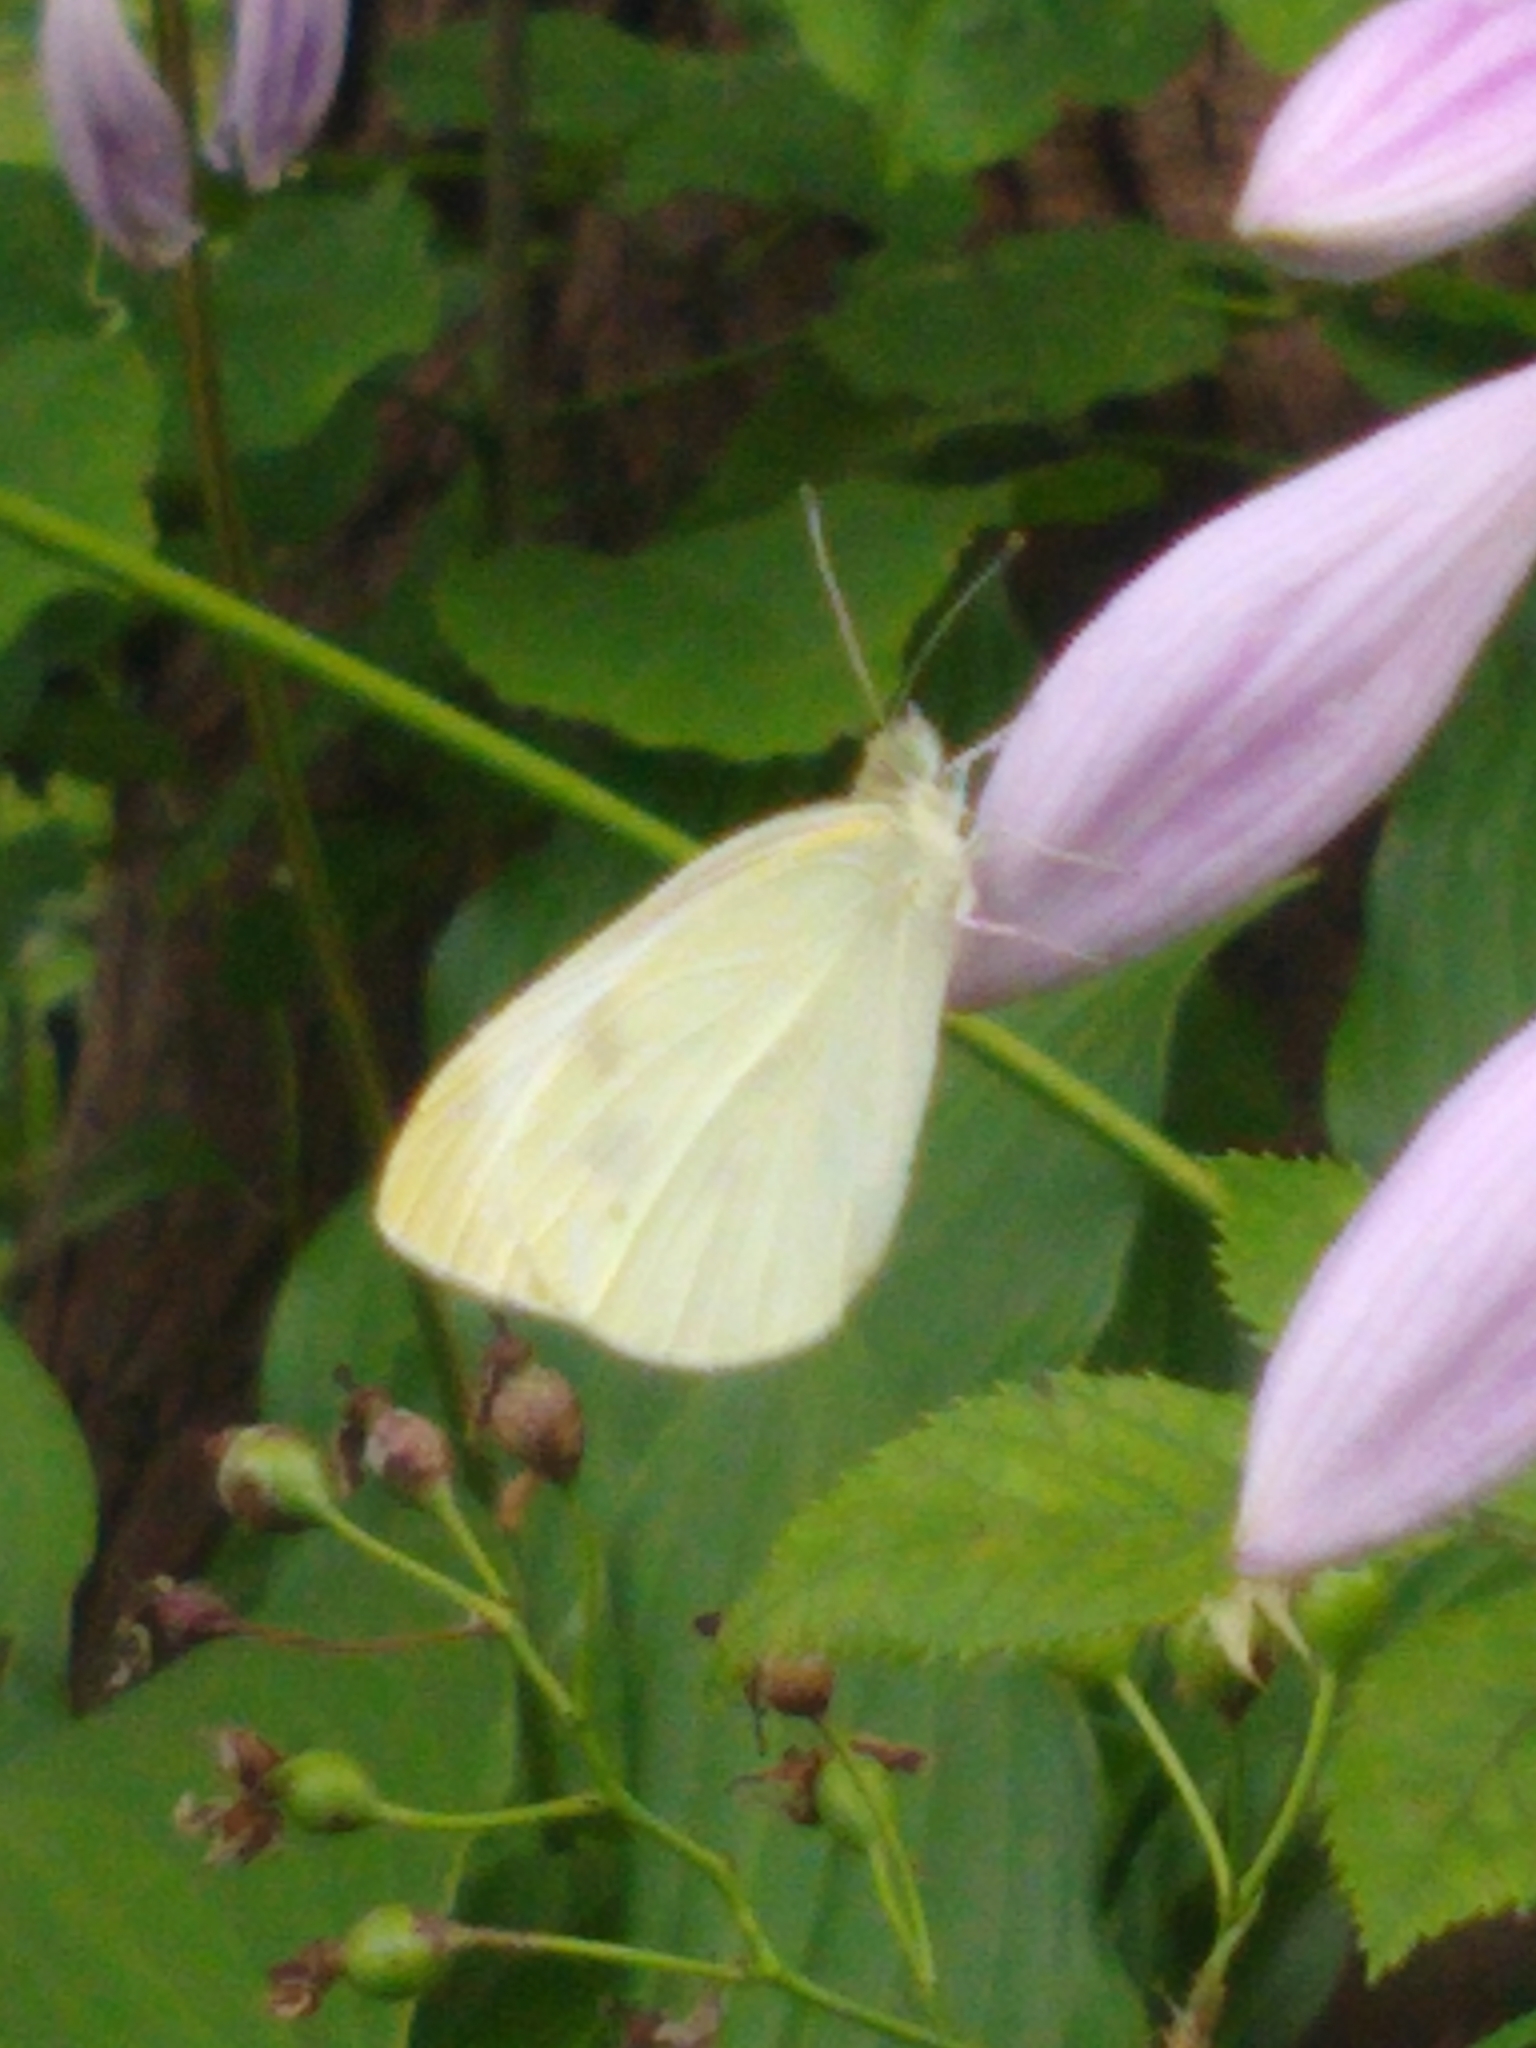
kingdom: Animalia
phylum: Arthropoda
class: Insecta
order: Lepidoptera
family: Pieridae
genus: Pieris
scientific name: Pieris rapae
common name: Small white
